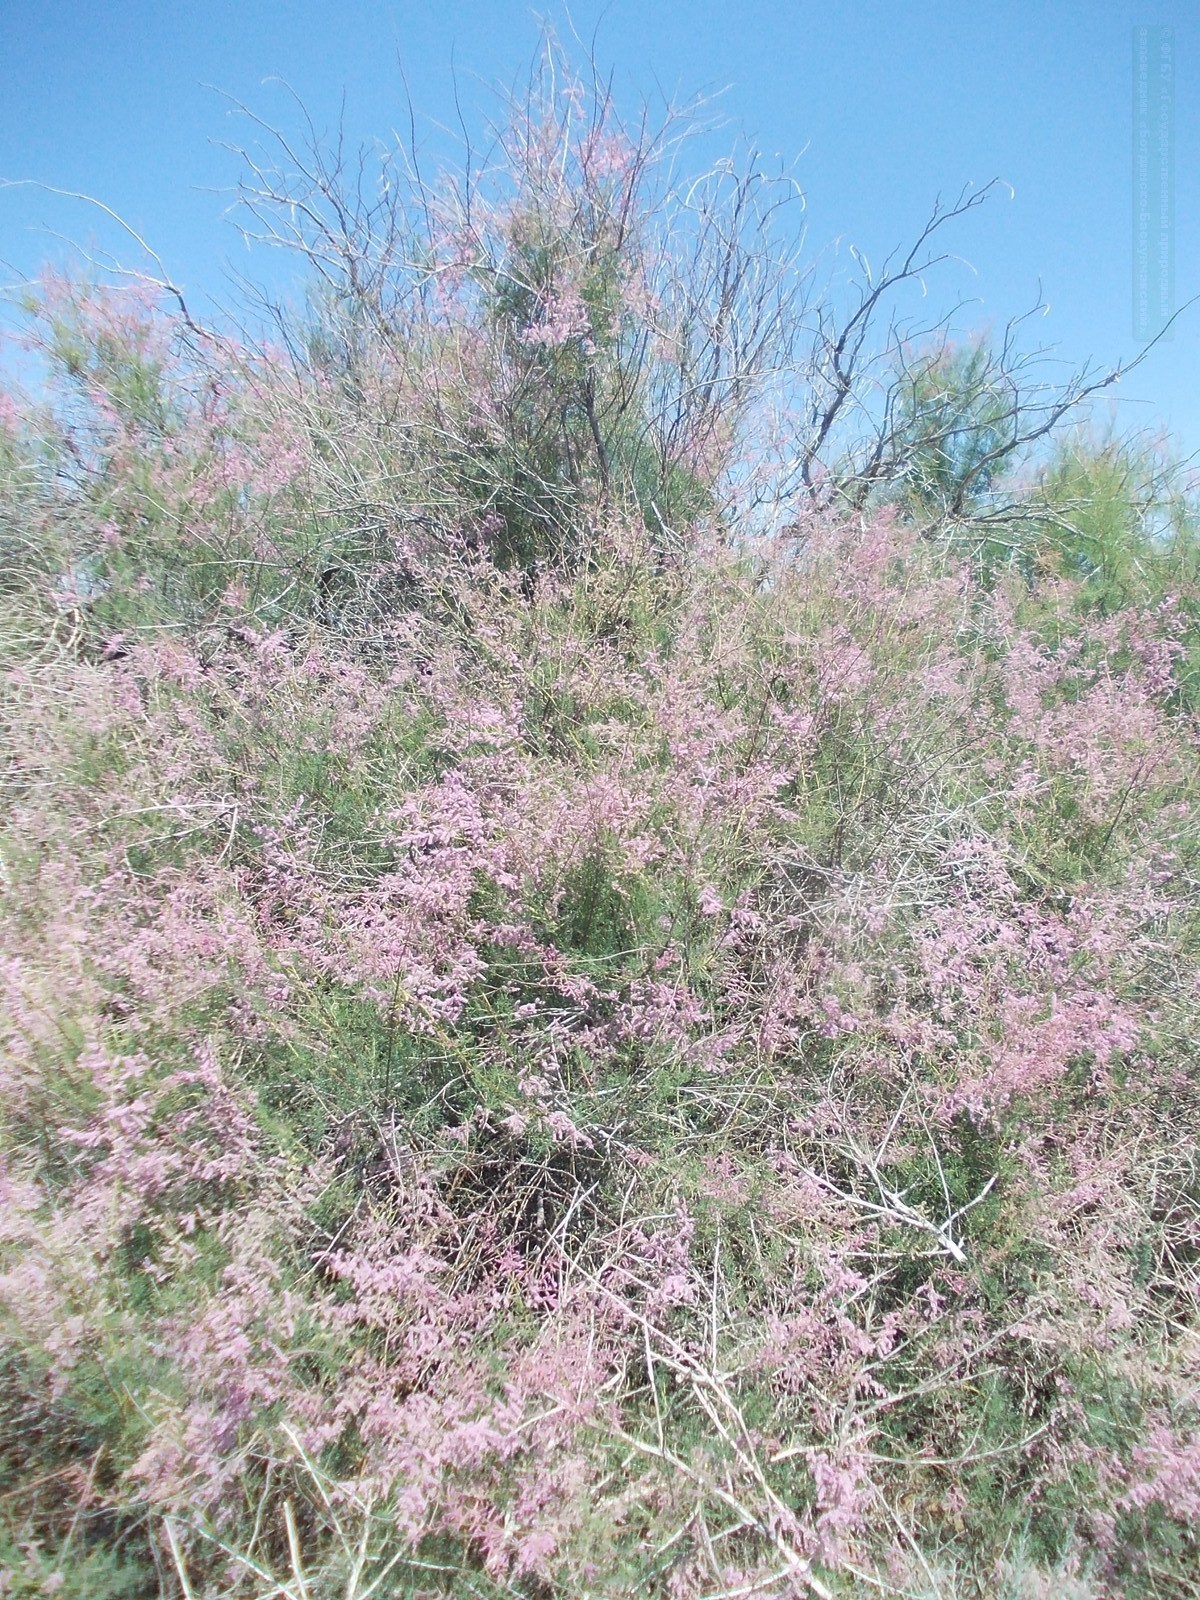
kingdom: Plantae
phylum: Tracheophyta
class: Magnoliopsida
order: Caryophyllales
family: Tamaricaceae
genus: Tamarix
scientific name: Tamarix ramosissima
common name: Pink tamarisk
